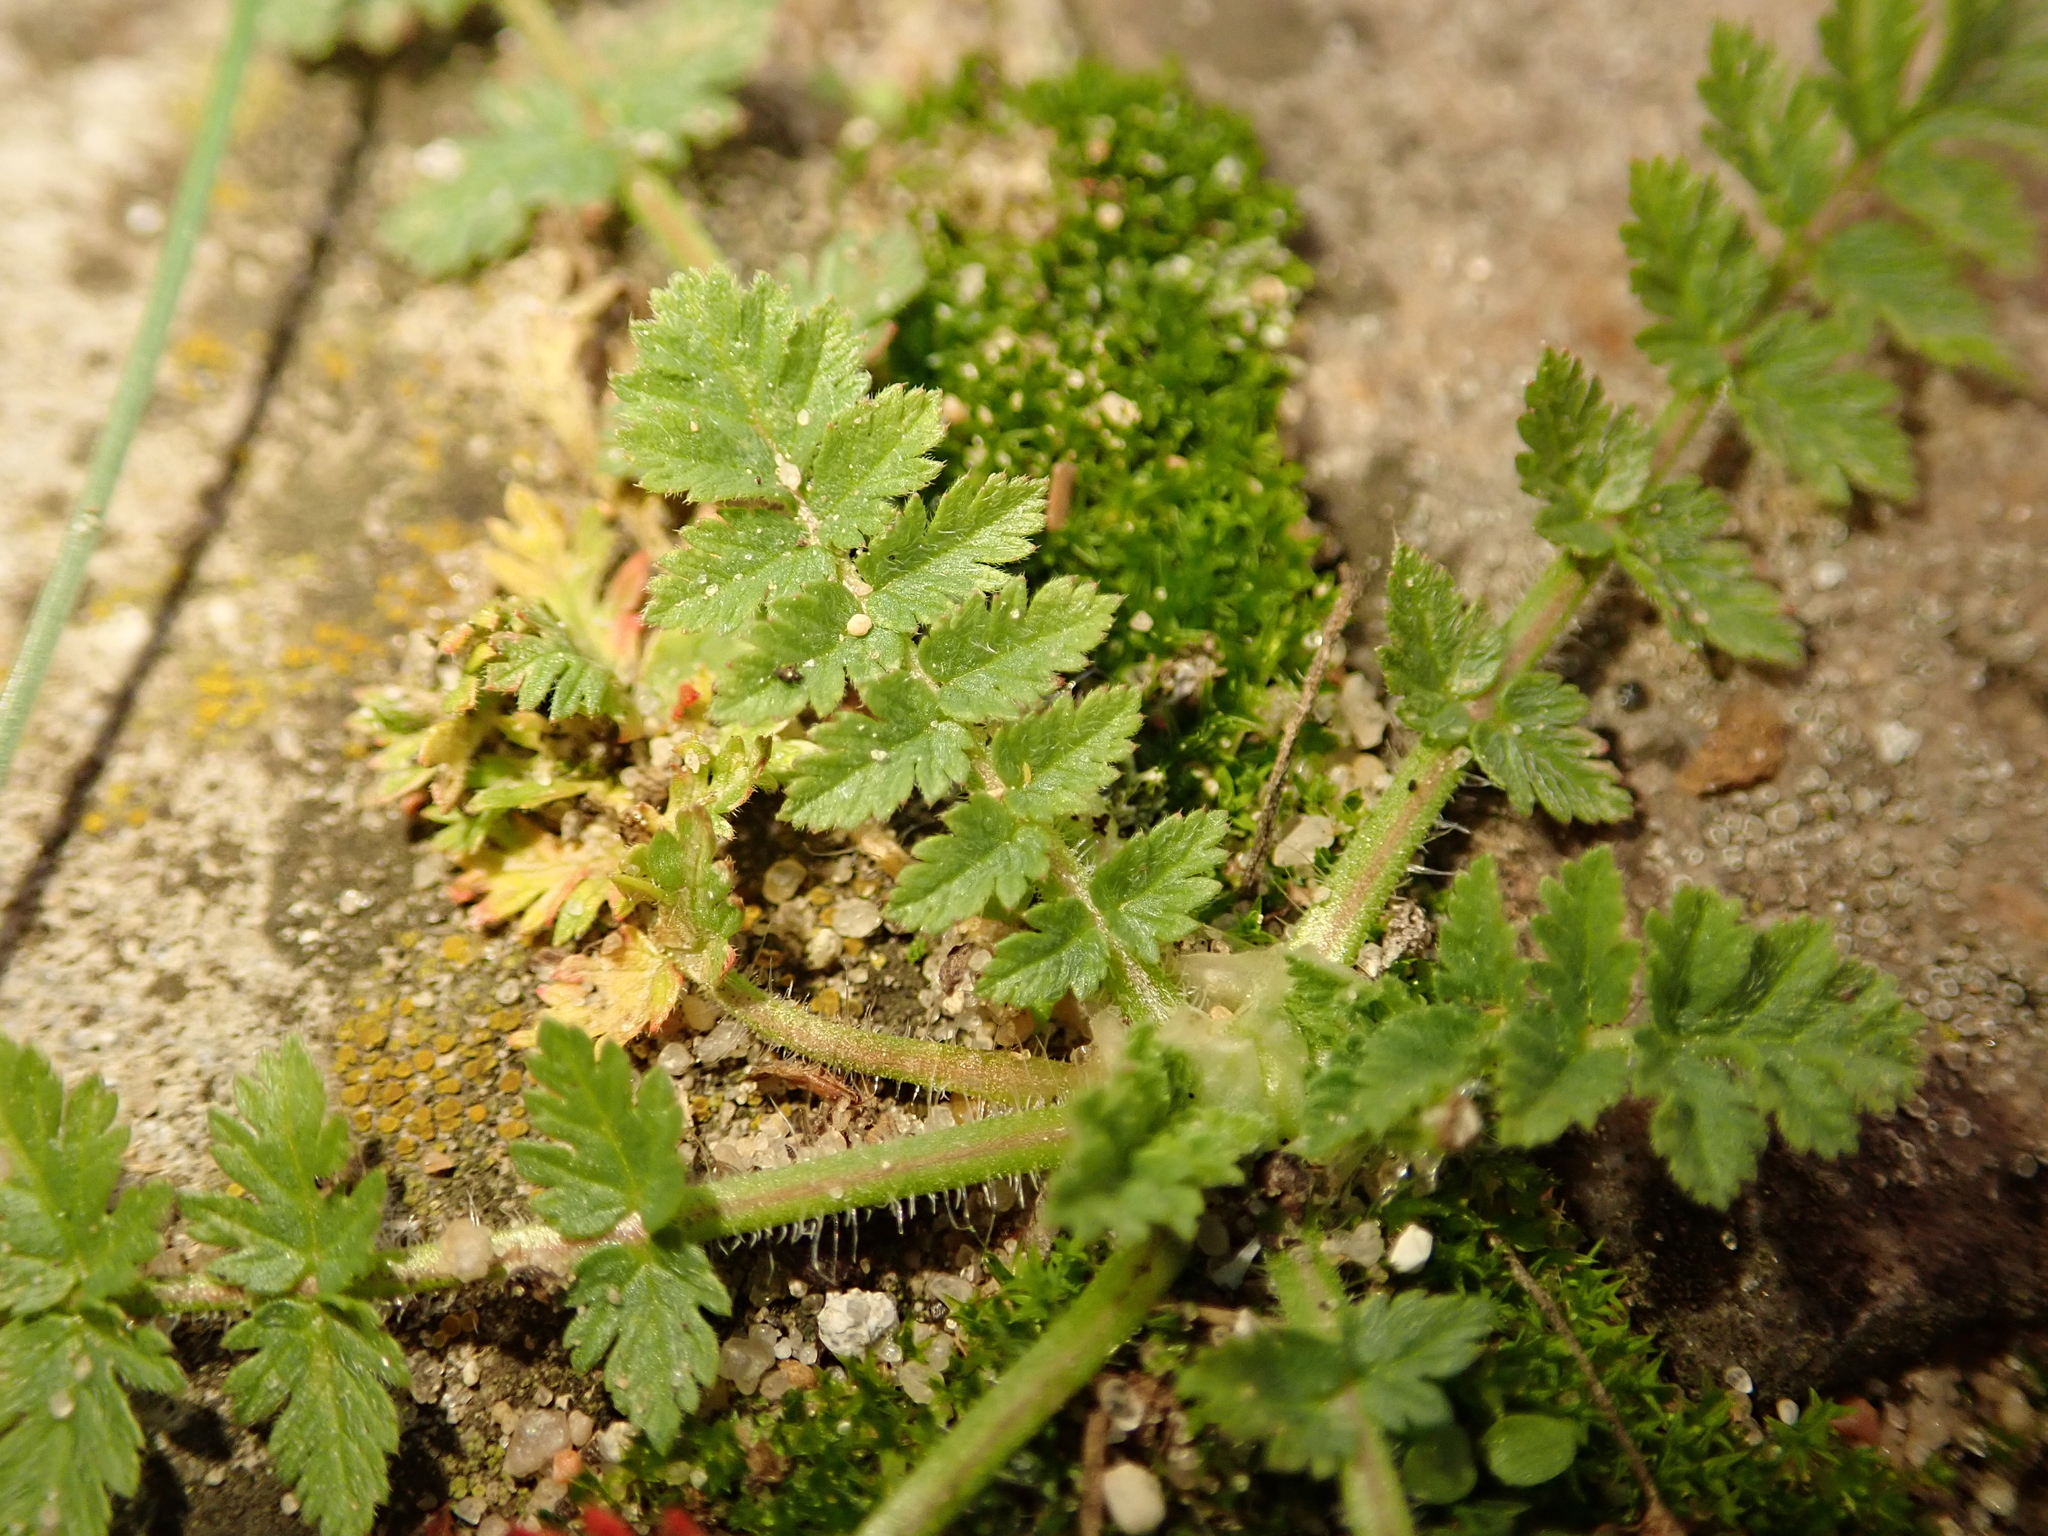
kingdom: Plantae
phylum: Tracheophyta
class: Magnoliopsida
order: Geraniales
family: Geraniaceae
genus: Erodium
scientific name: Erodium cicutarium
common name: Common stork's-bill
